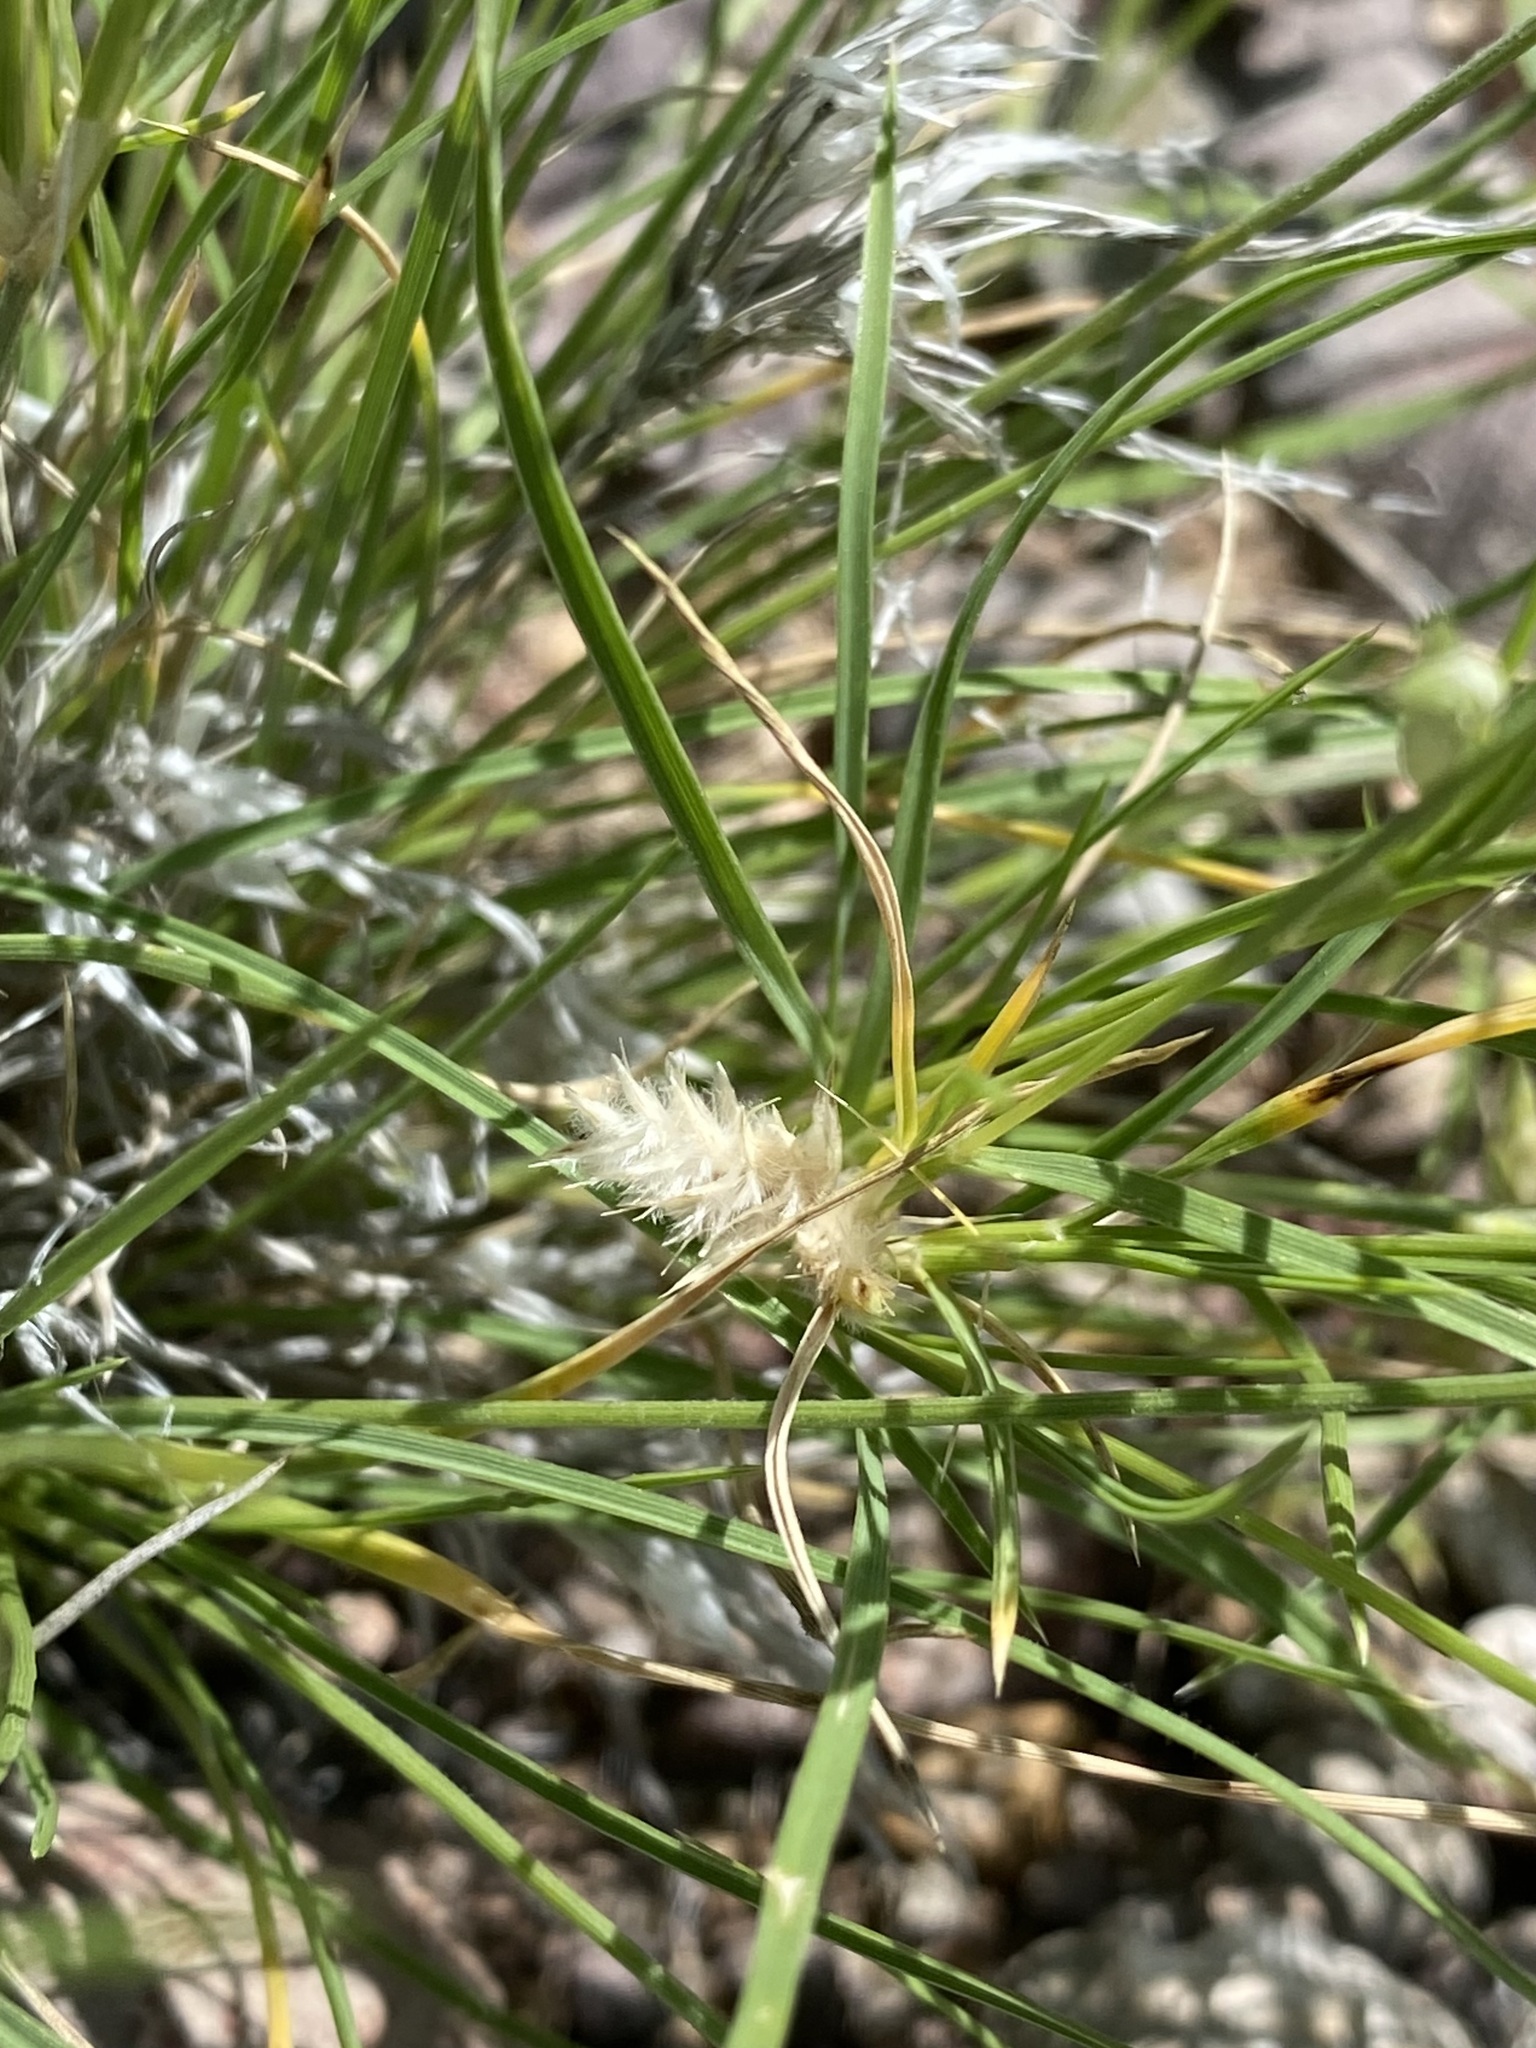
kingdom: Plantae
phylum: Tracheophyta
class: Liliopsida
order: Poales
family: Poaceae
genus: Dasyochloa
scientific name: Dasyochloa pulchella
